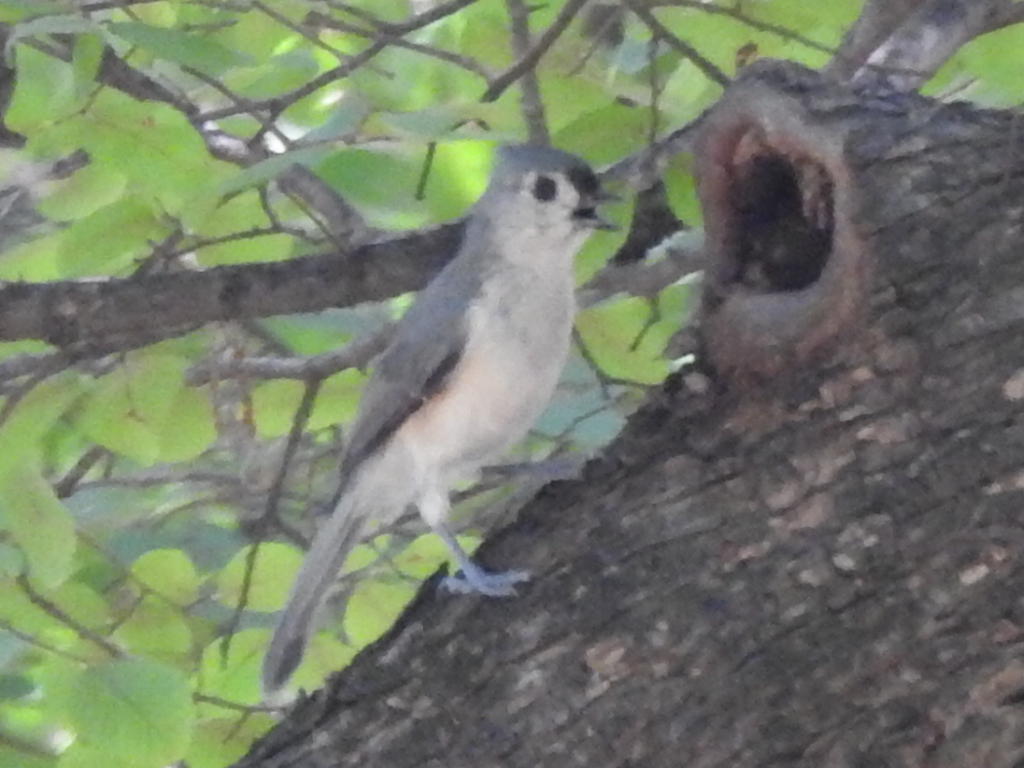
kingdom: Animalia
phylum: Chordata
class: Aves
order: Passeriformes
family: Paridae
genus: Baeolophus
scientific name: Baeolophus bicolor
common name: Tufted titmouse
